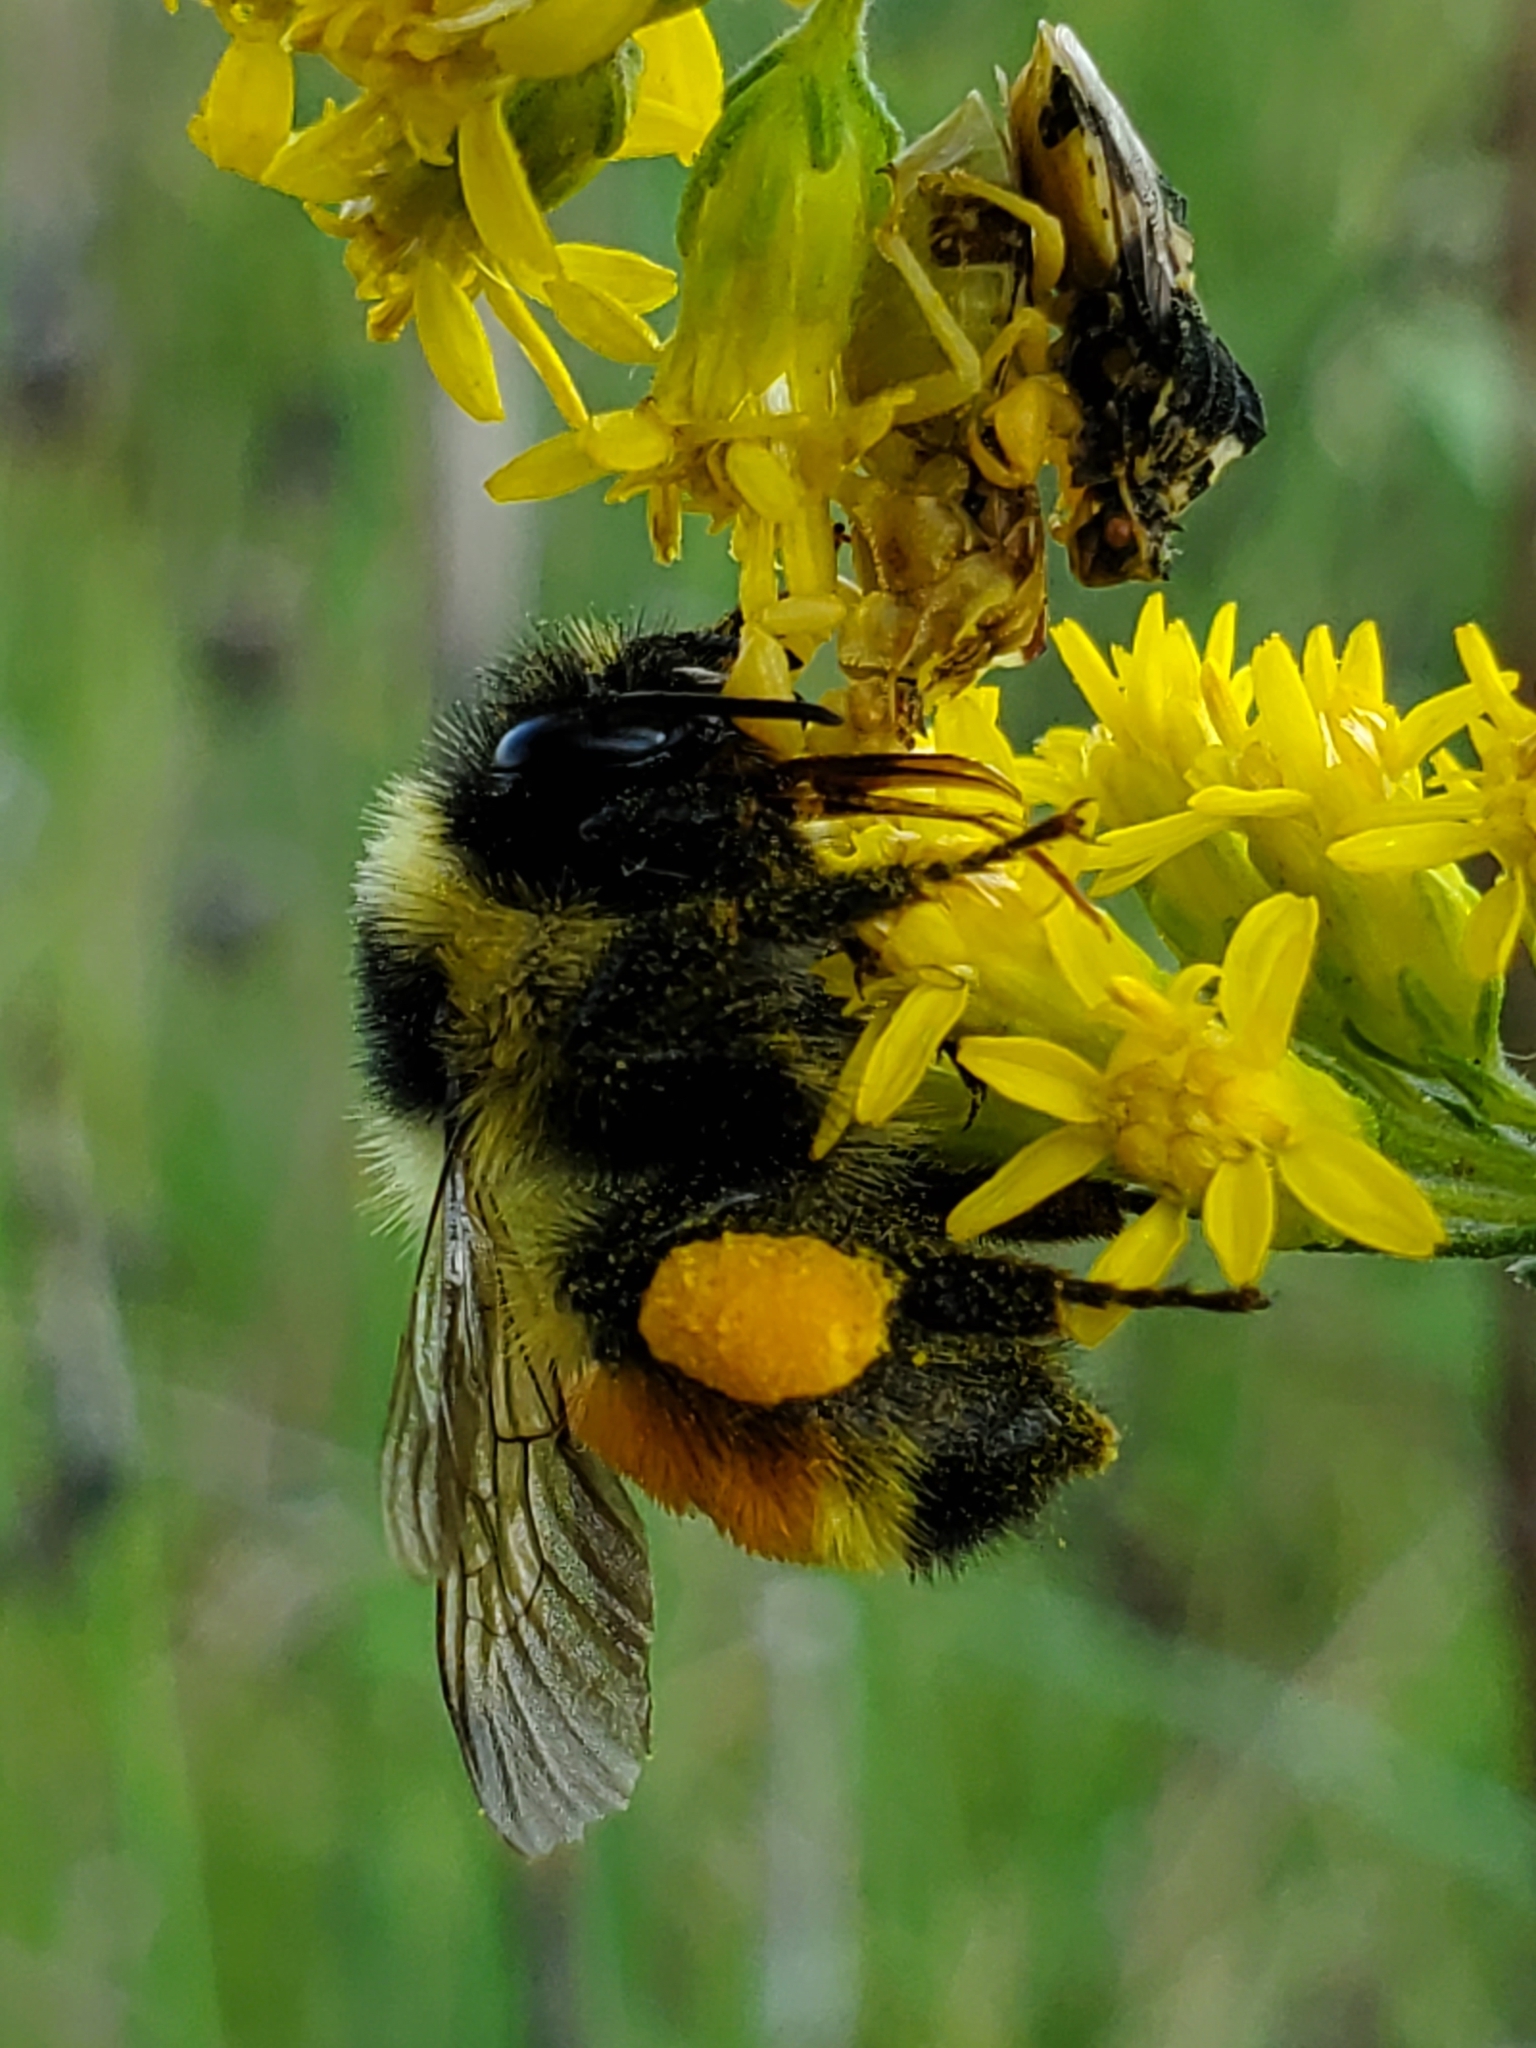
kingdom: Animalia
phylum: Arthropoda
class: Insecta
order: Hymenoptera
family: Apidae
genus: Bombus
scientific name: Bombus ternarius
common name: Tri-colored bumble bee
